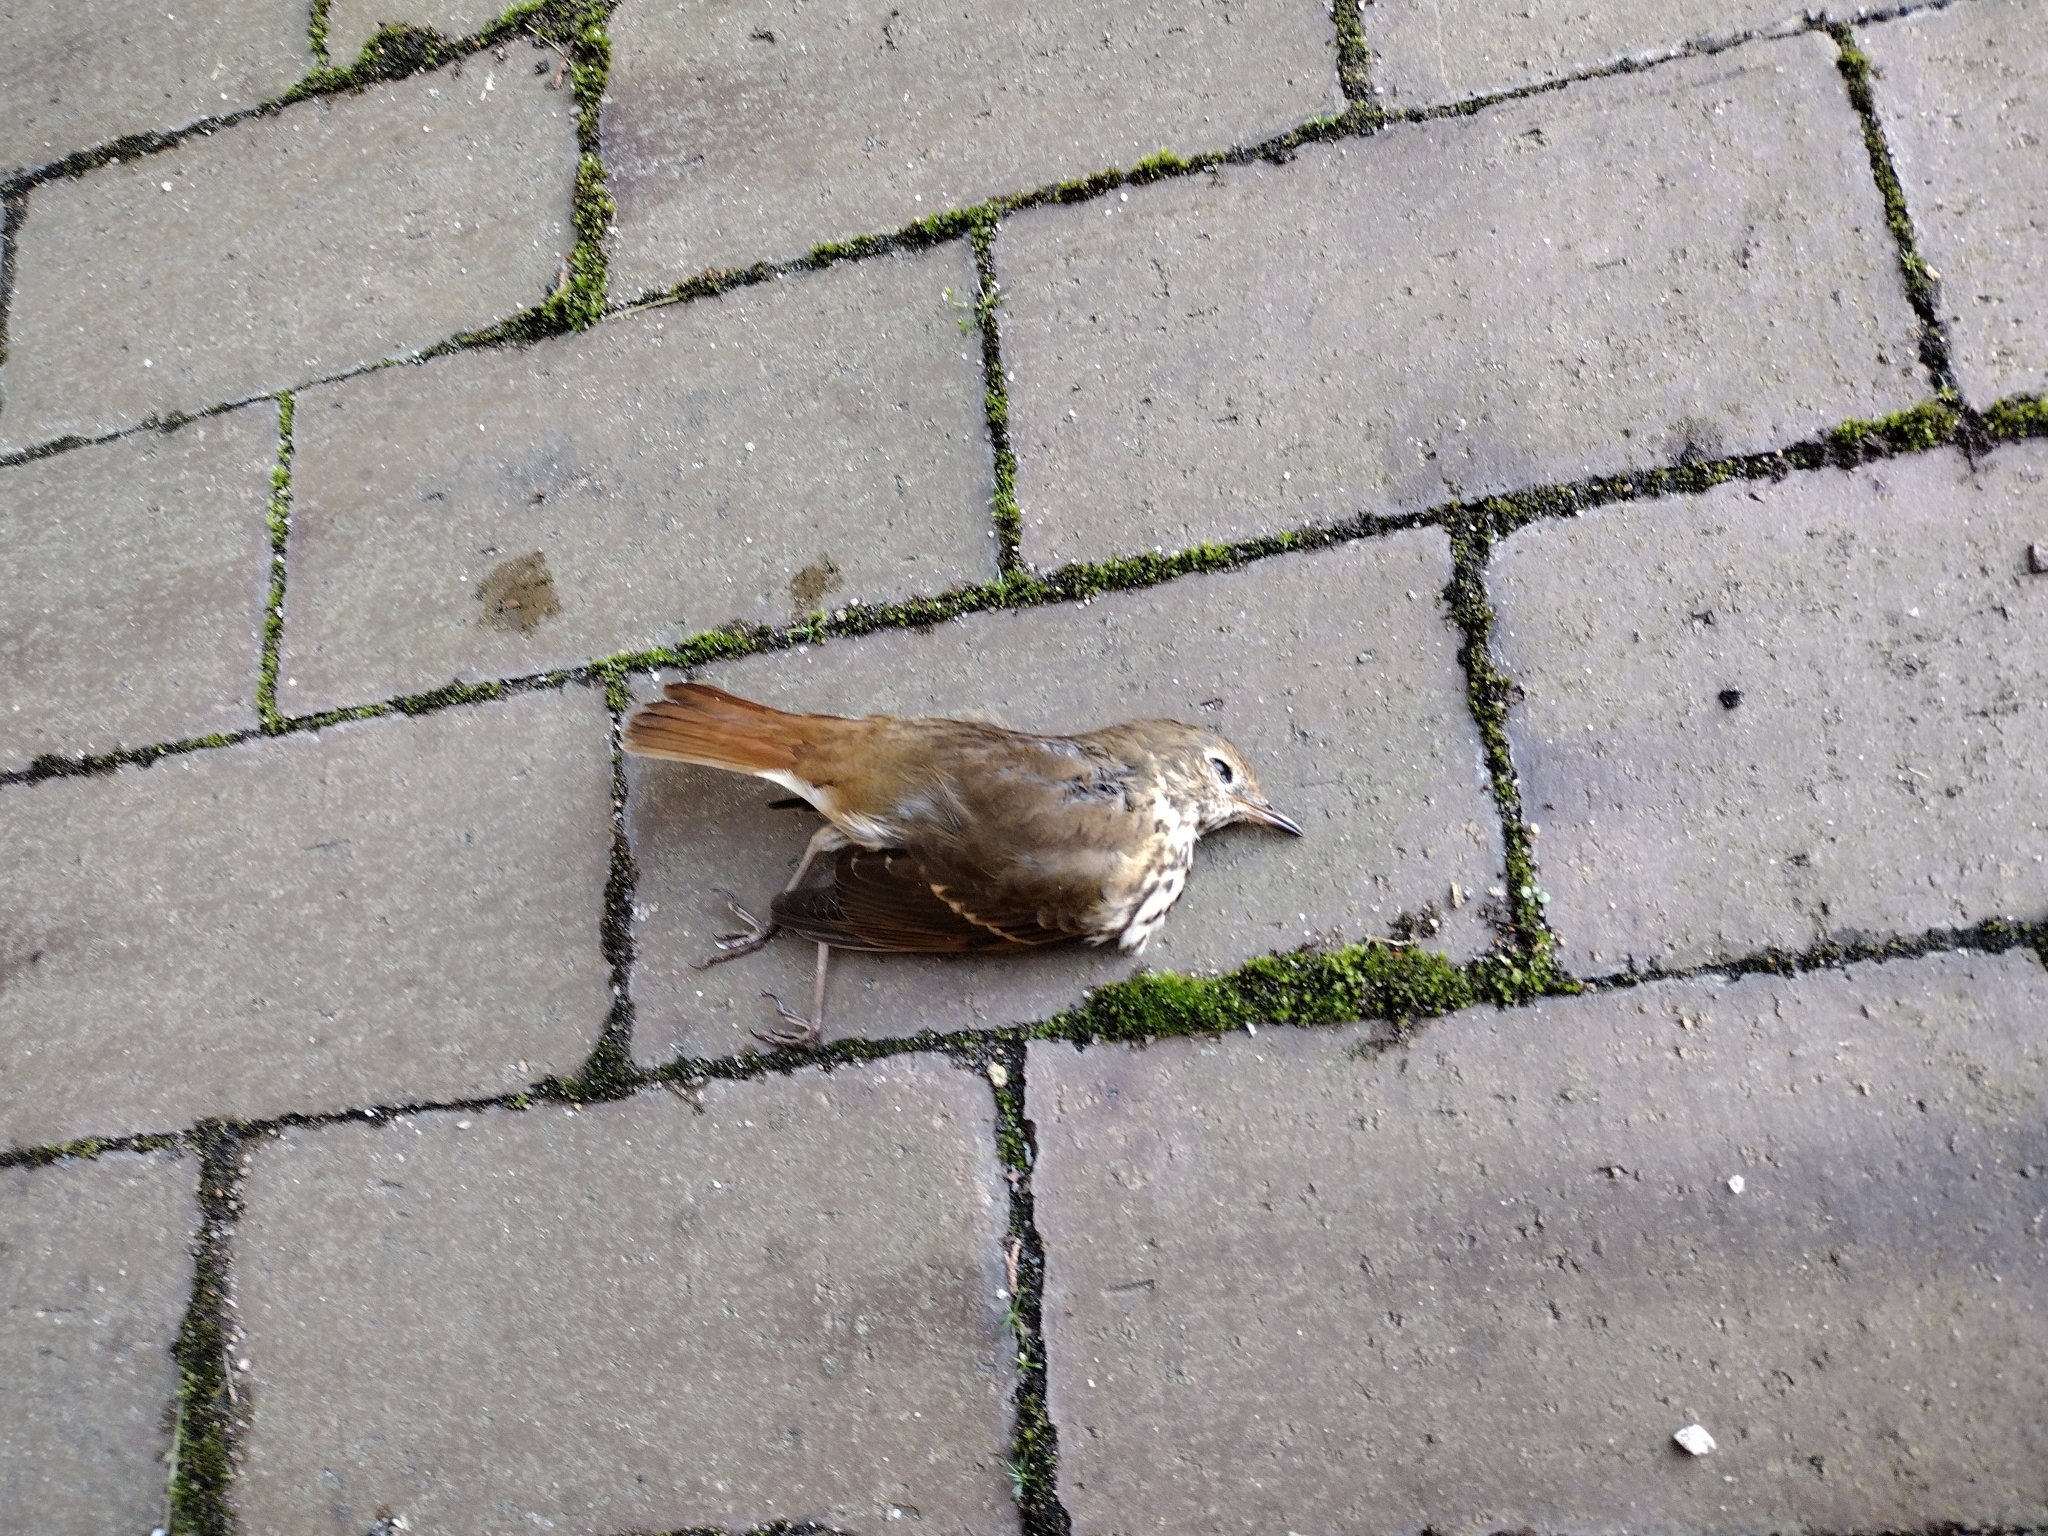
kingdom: Animalia
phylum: Chordata
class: Aves
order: Passeriformes
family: Turdidae
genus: Catharus
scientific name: Catharus guttatus
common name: Hermit thrush
